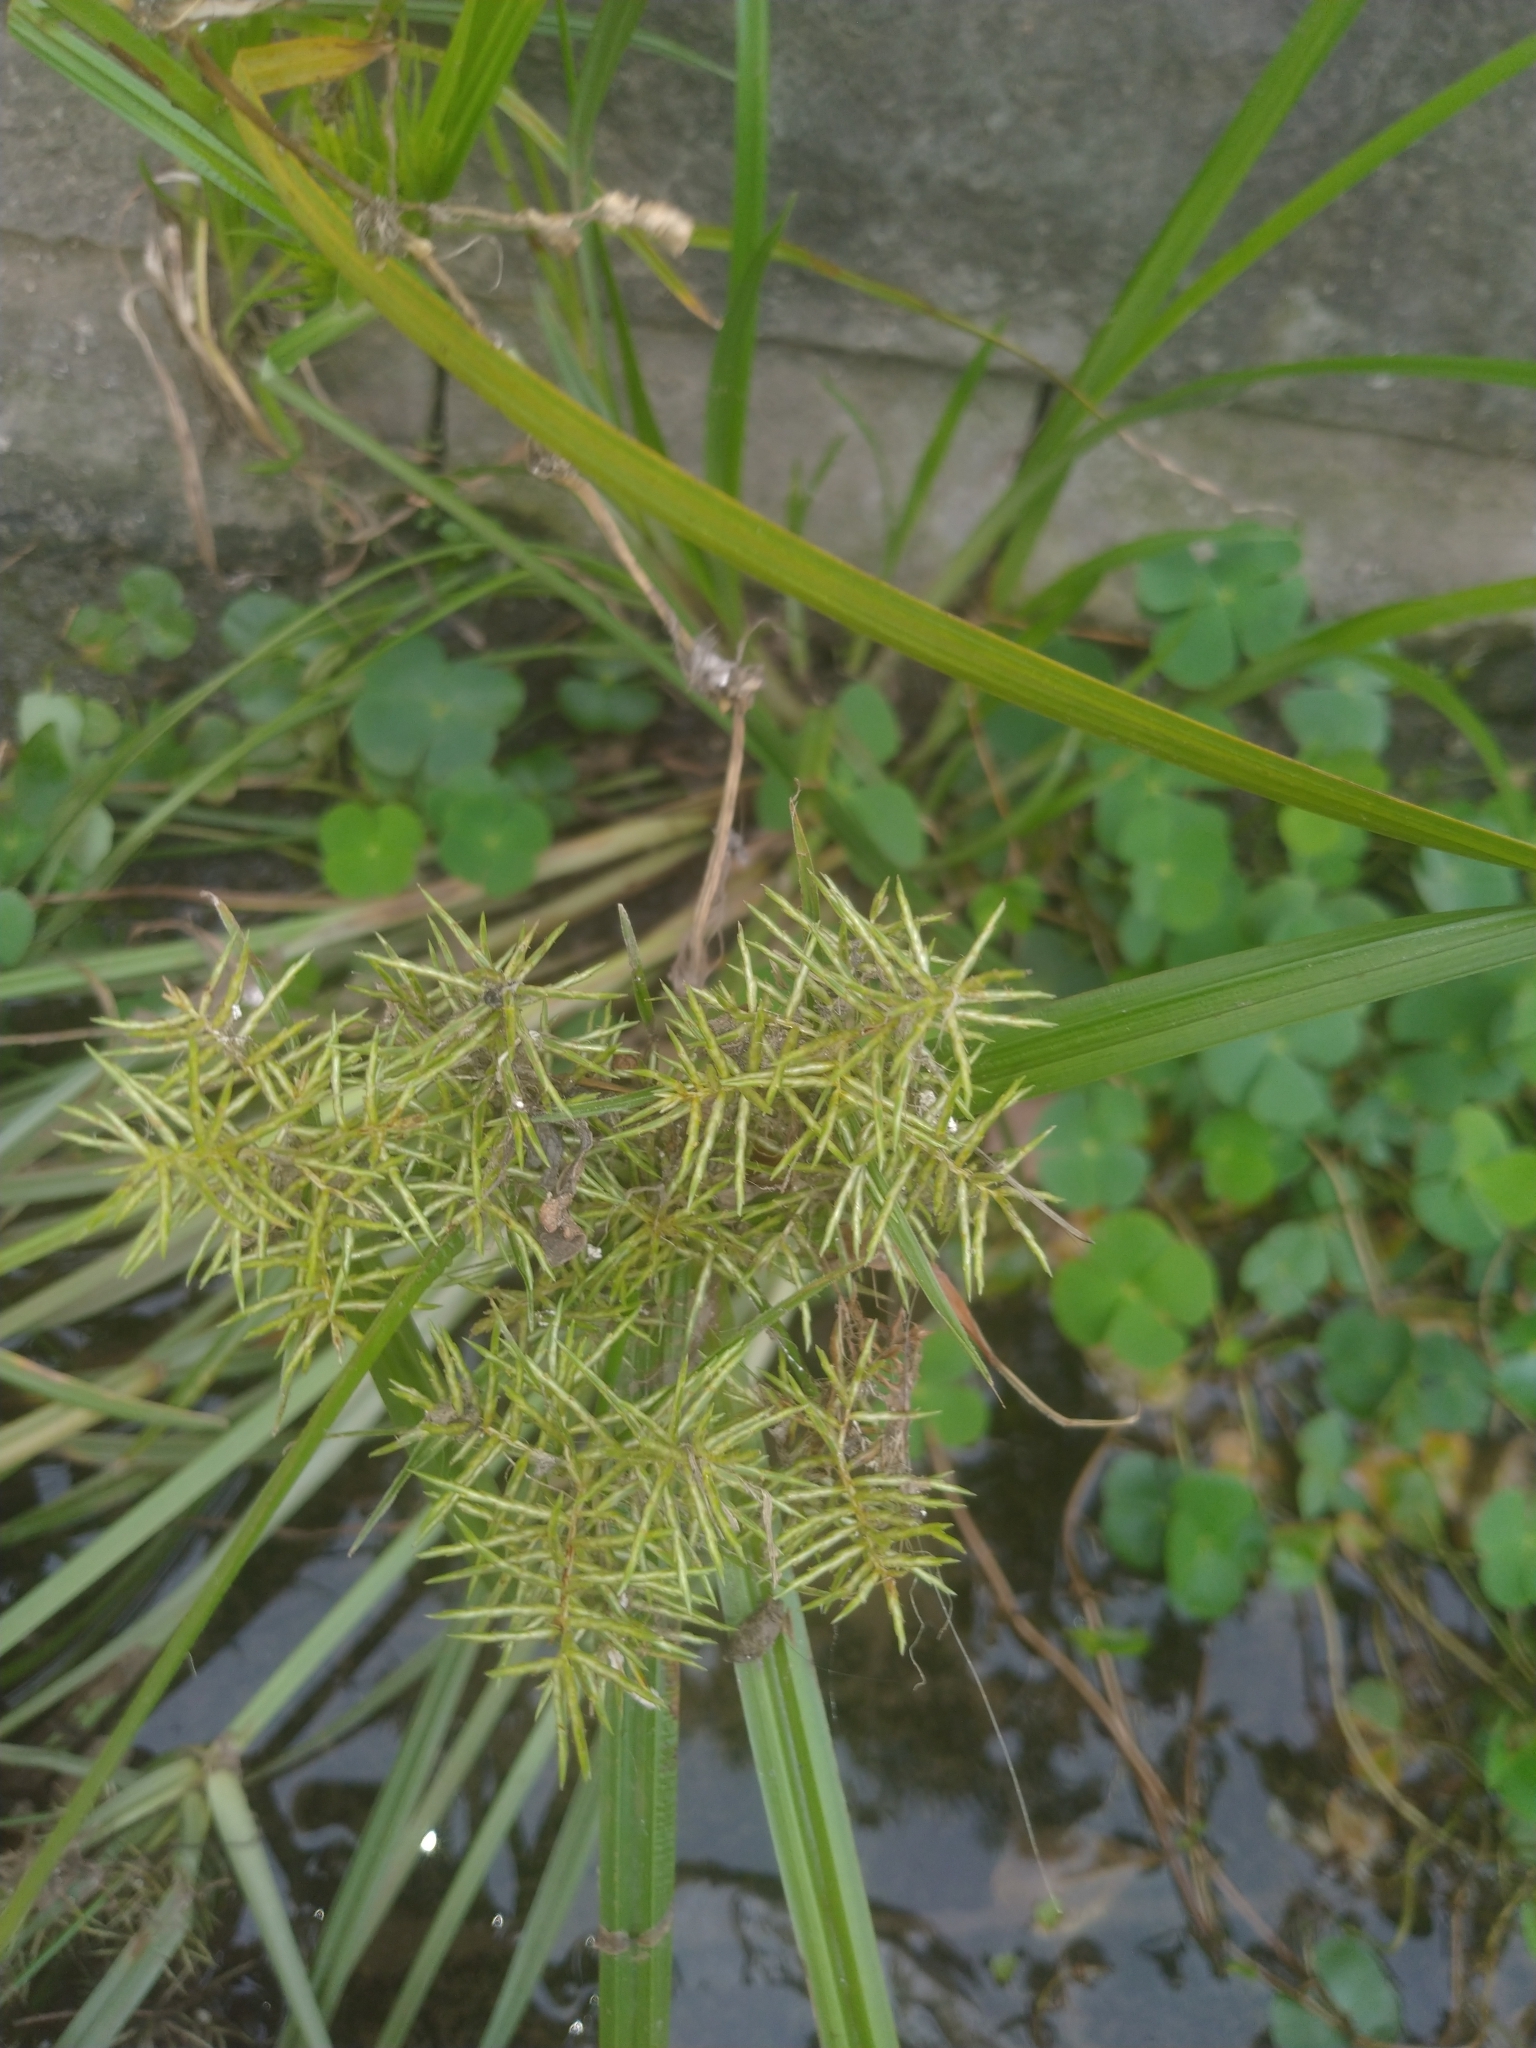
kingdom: Plantae
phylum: Tracheophyta
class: Liliopsida
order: Poales
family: Cyperaceae
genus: Cyperus
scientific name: Cyperus odoratus
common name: Fragrant flatsedge
